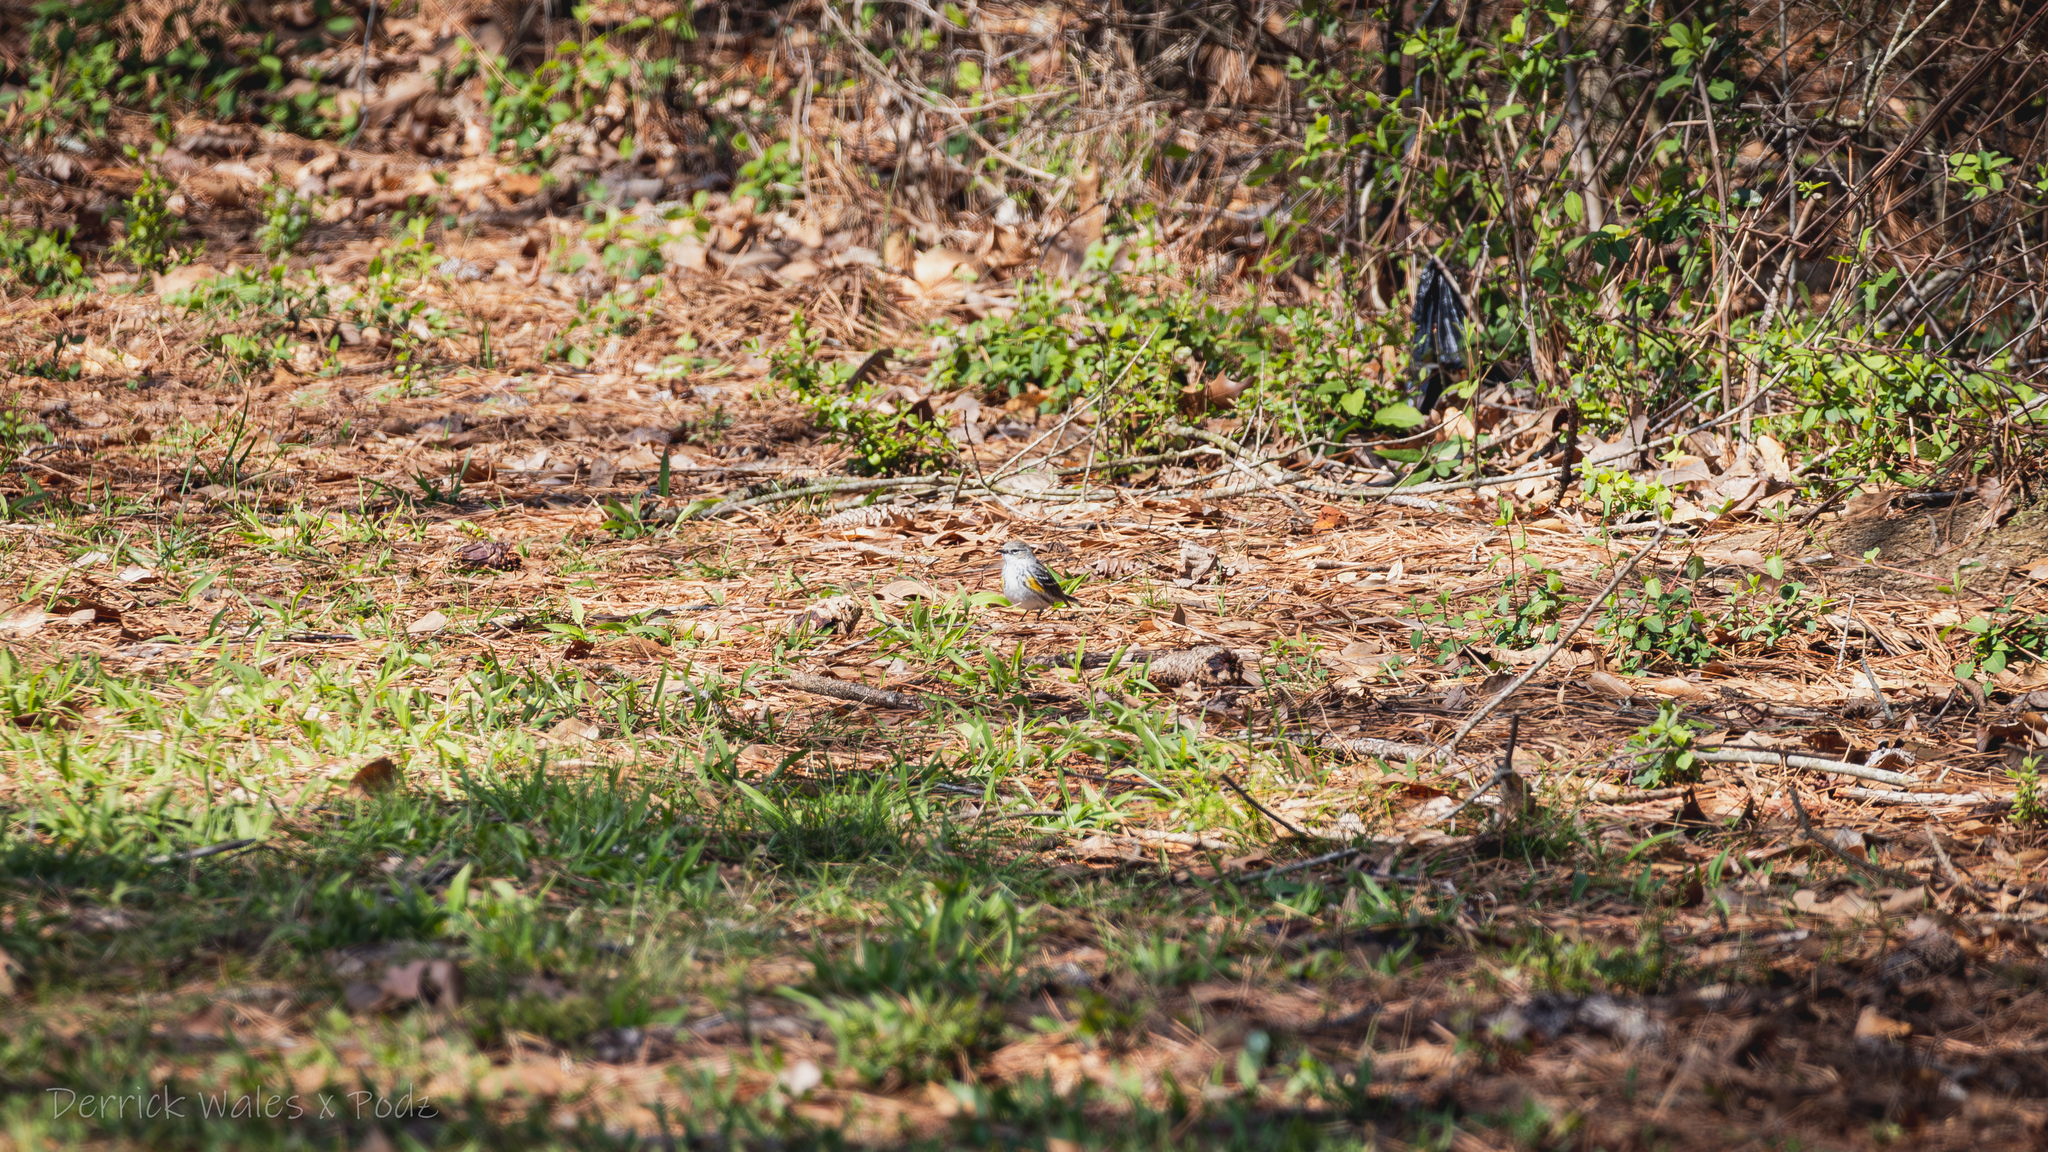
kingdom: Animalia
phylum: Chordata
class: Aves
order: Passeriformes
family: Parulidae
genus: Setophaga
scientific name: Setophaga coronata
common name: Myrtle warbler
